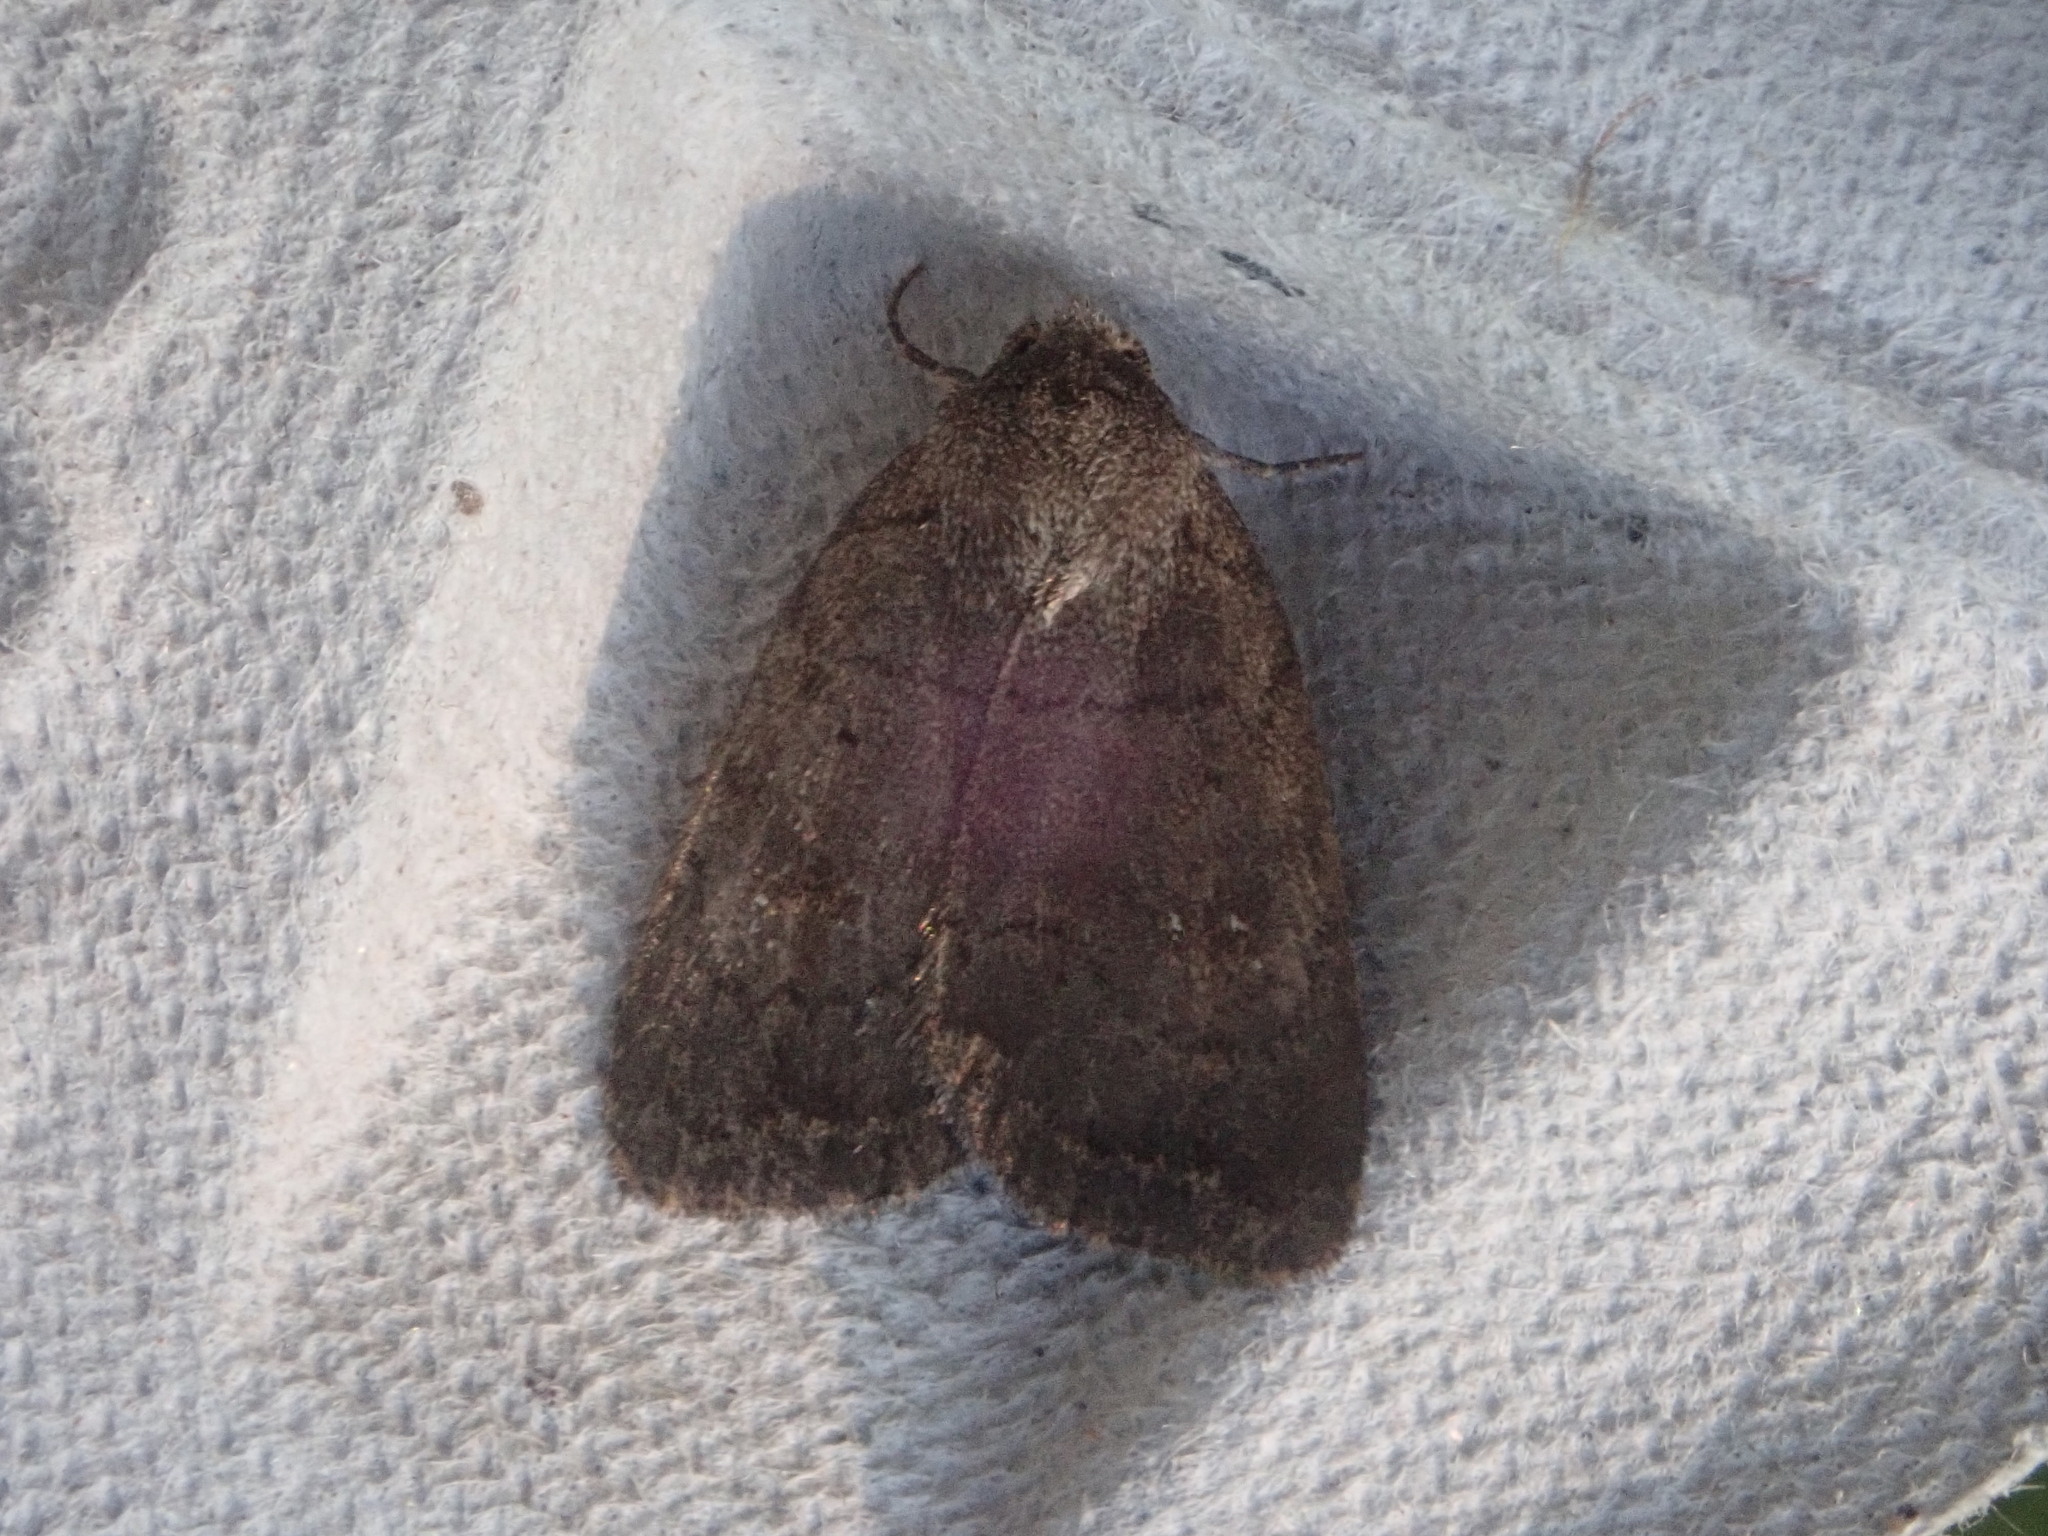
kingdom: Animalia
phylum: Arthropoda
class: Insecta
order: Lepidoptera
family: Noctuidae
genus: Athetis
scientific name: Athetis tarda
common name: Slowpoke moth
